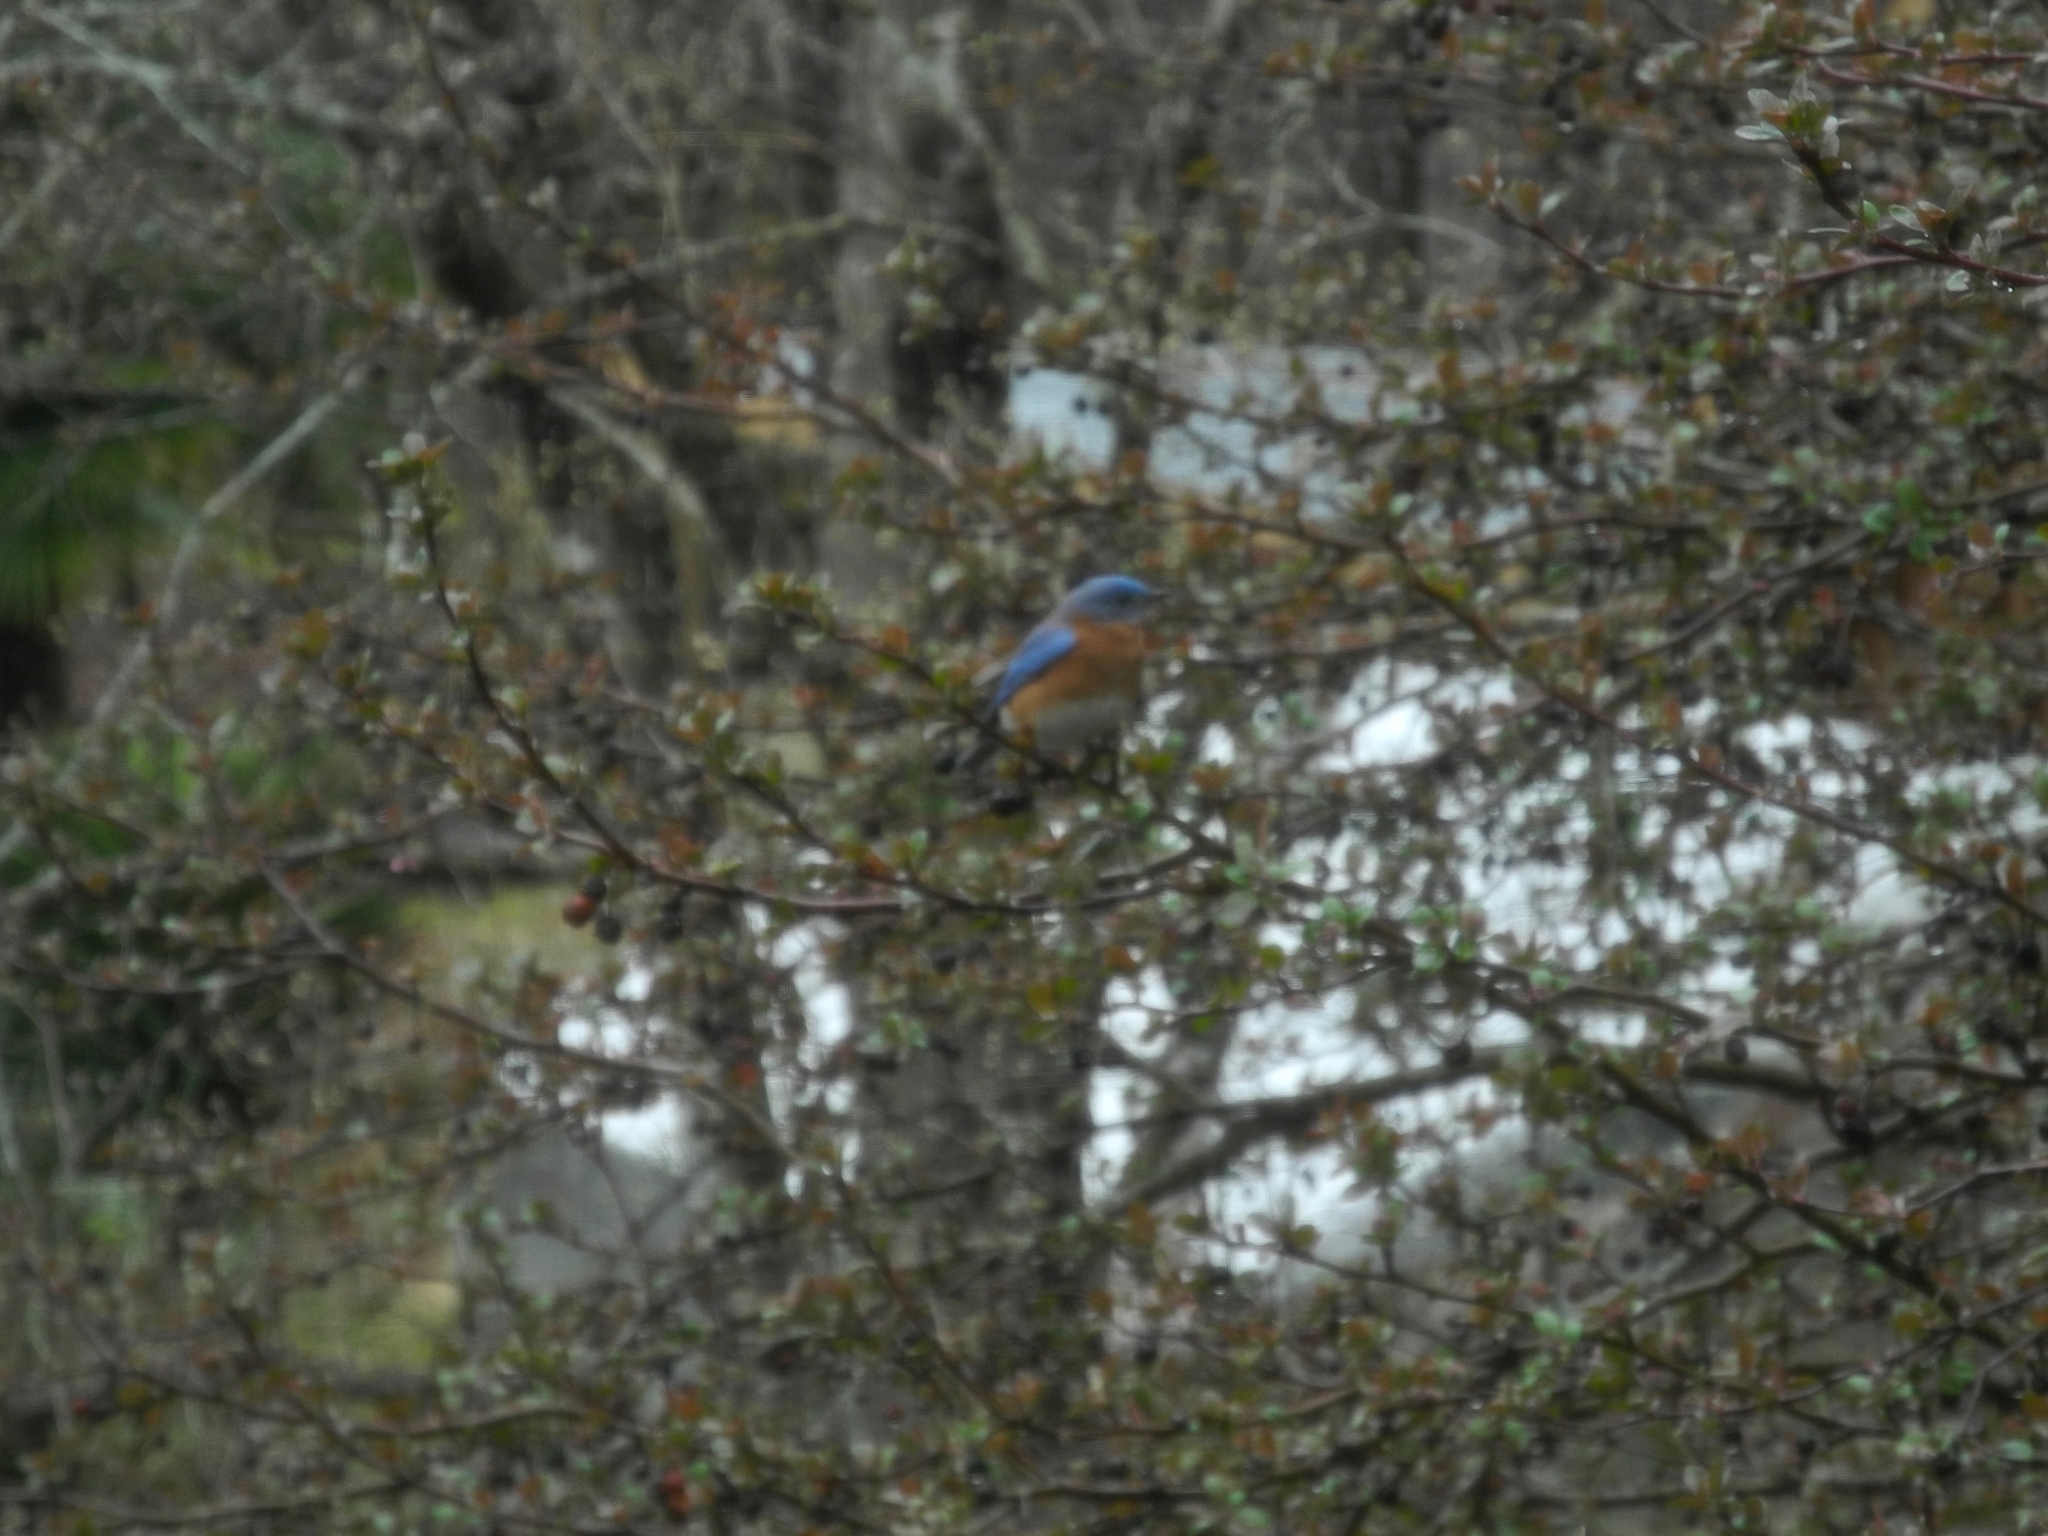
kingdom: Animalia
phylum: Chordata
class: Aves
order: Passeriformes
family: Turdidae
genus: Sialia
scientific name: Sialia sialis
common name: Eastern bluebird
